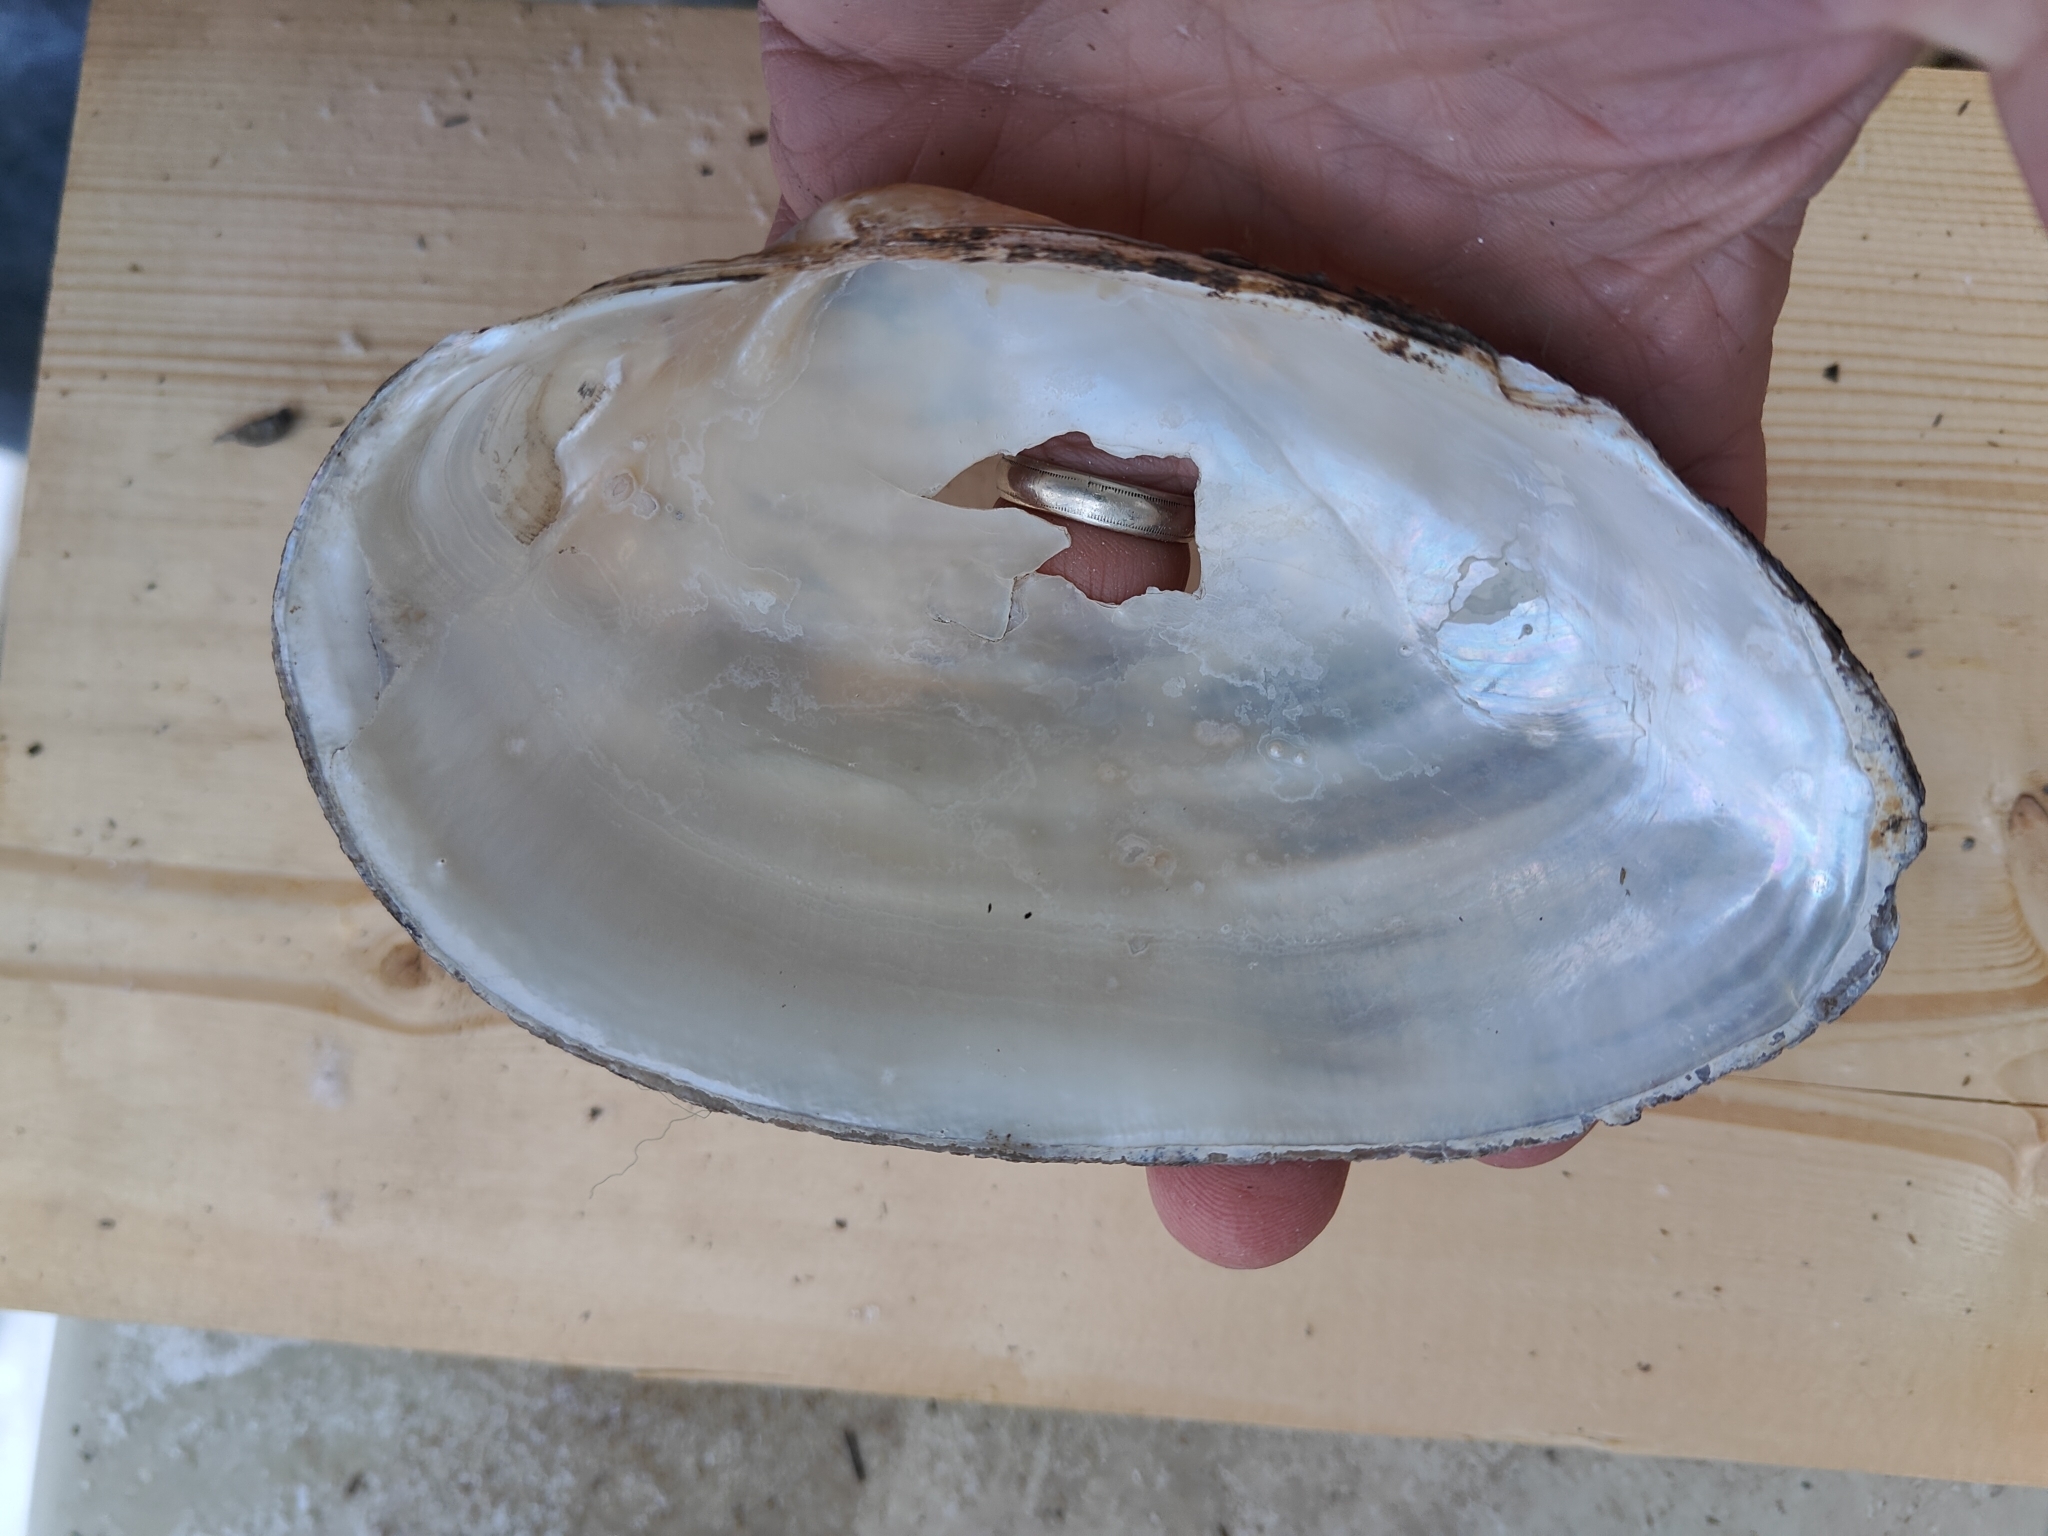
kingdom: Animalia
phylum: Mollusca
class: Bivalvia
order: Unionida
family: Unionidae
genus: Pyganodon
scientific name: Pyganodon grandis
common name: Giant floater
